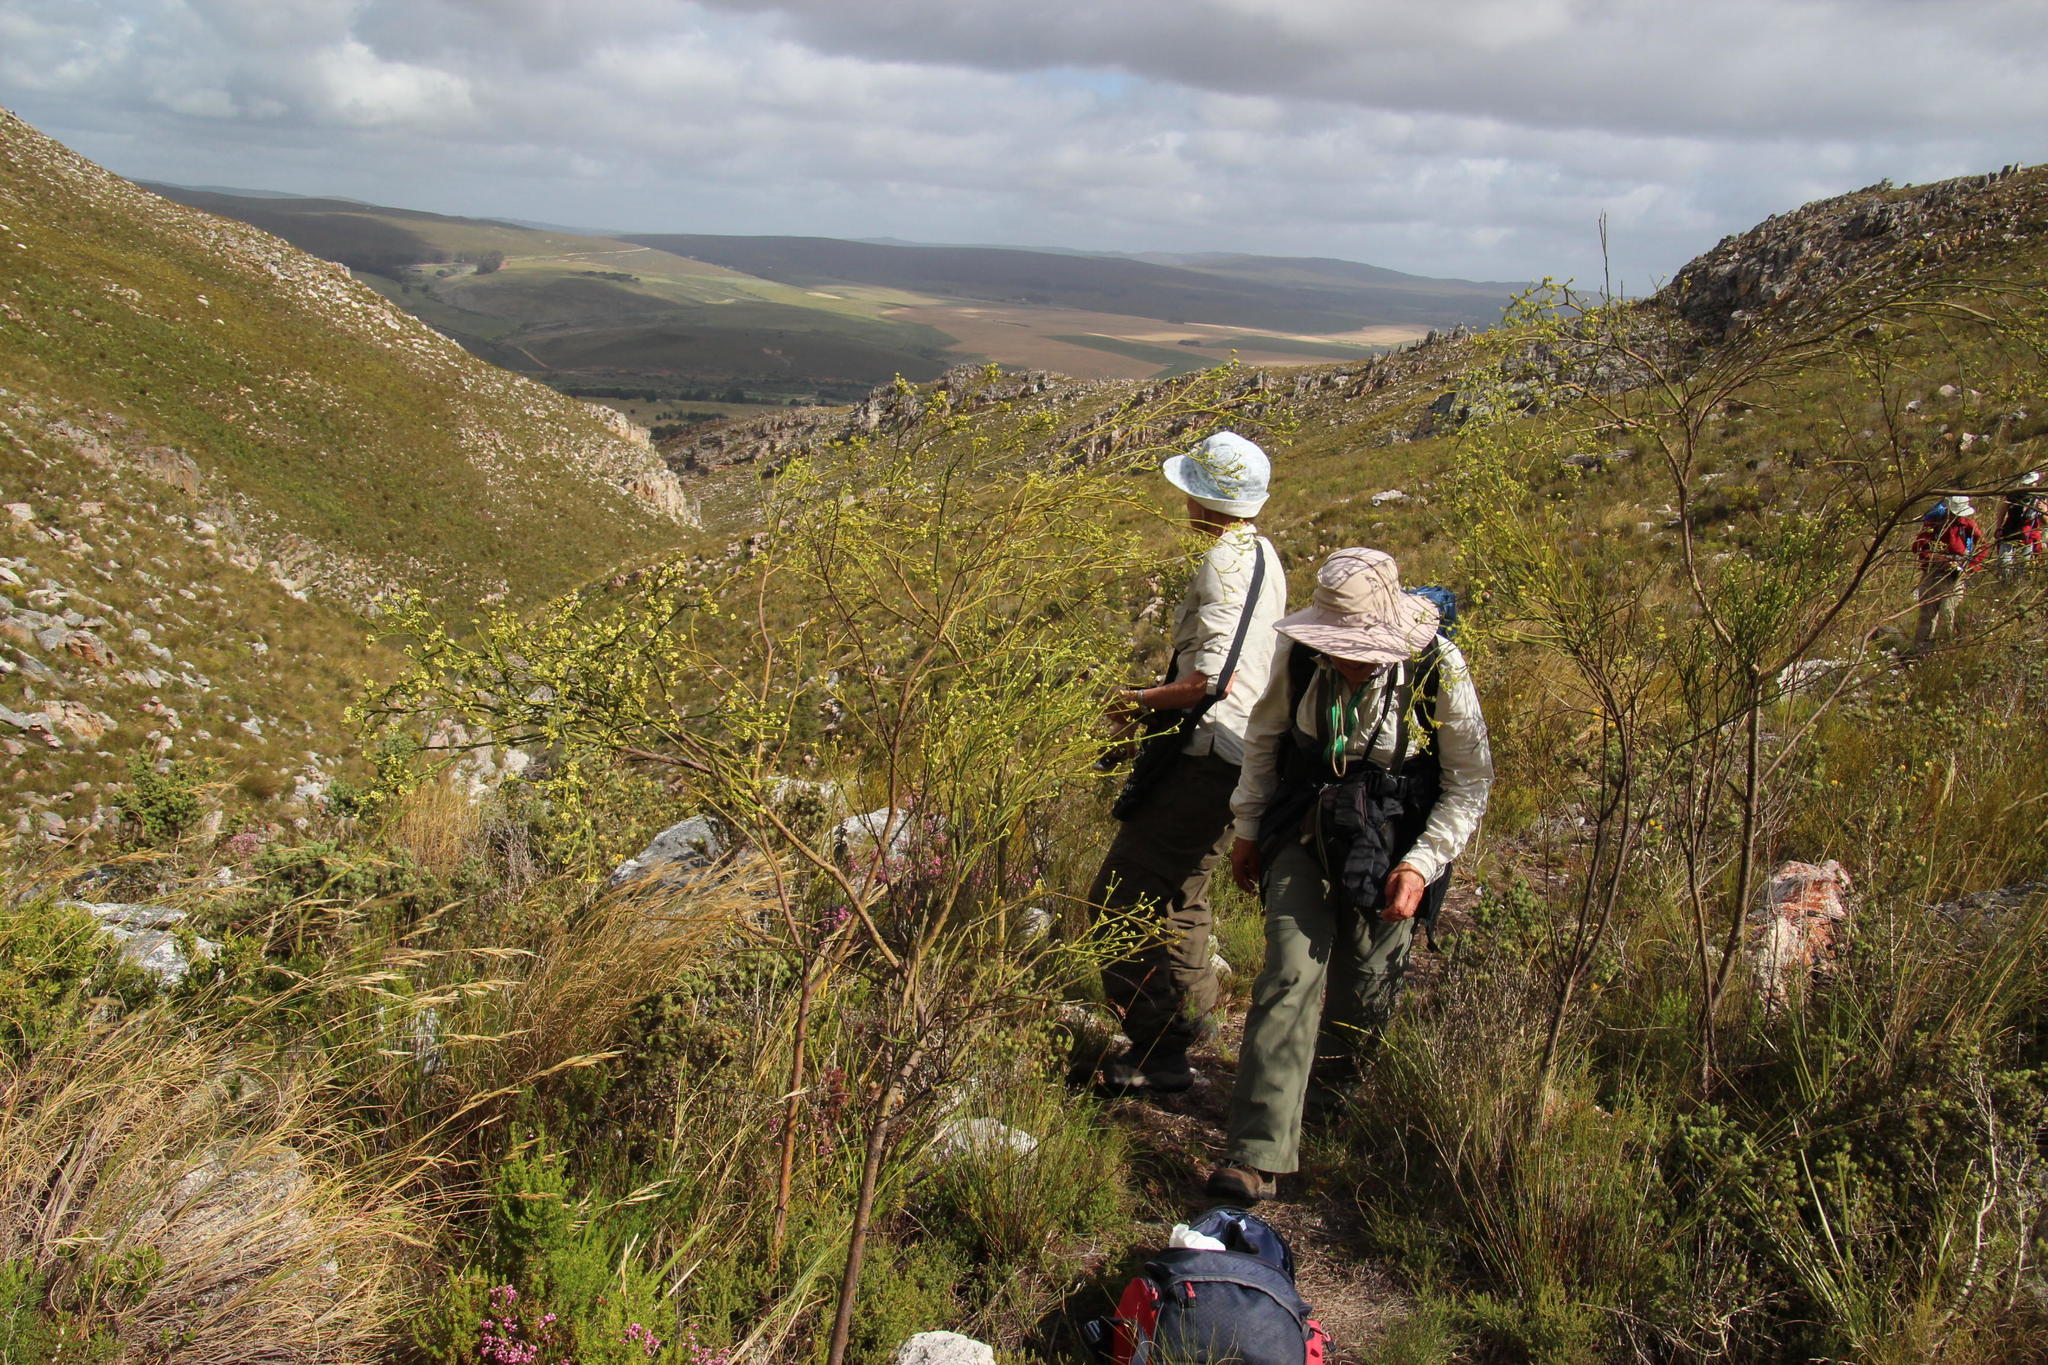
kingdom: Plantae
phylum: Tracheophyta
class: Magnoliopsida
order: Santalales
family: Thesiaceae
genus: Thesium
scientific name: Thesium strictum
